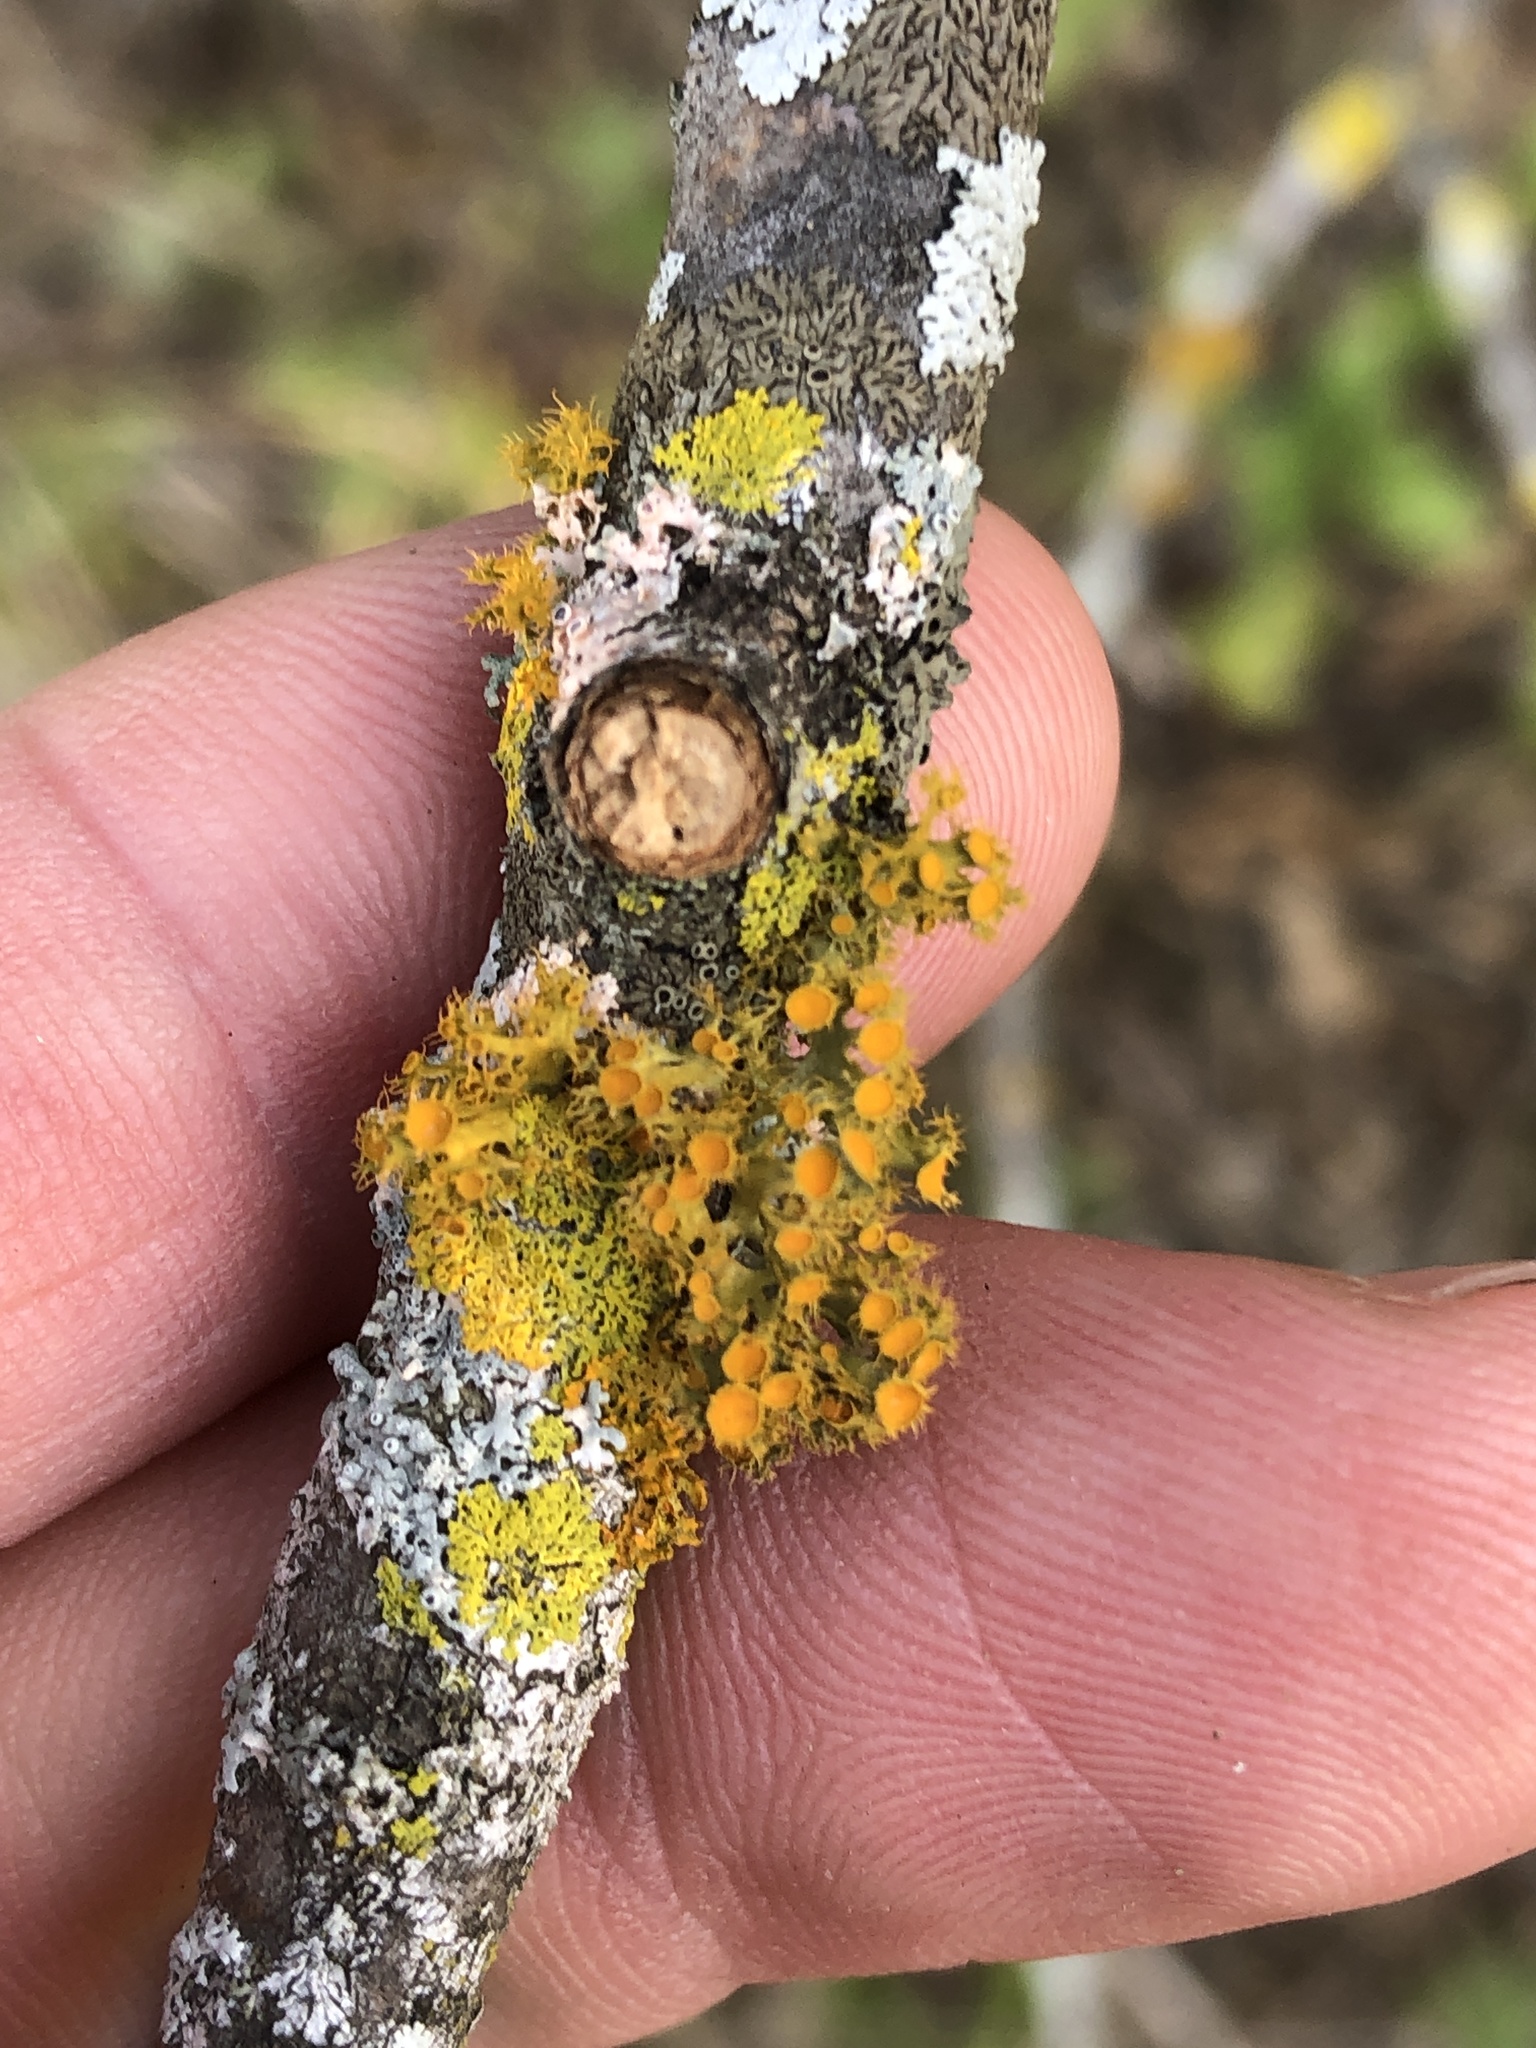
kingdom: Fungi
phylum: Ascomycota
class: Lecanoromycetes
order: Teloschistales
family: Teloschistaceae
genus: Niorma
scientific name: Niorma chrysophthalma
